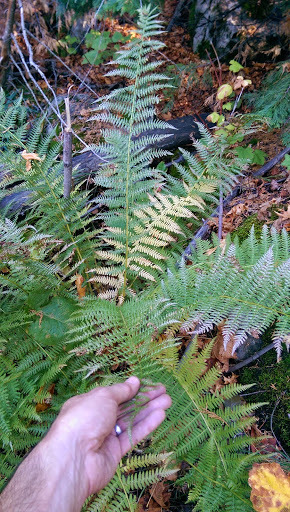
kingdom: Plantae
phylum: Tracheophyta
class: Polypodiopsida
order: Polypodiales
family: Athyriaceae
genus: Athyrium
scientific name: Athyrium filix-femina
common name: Lady fern
